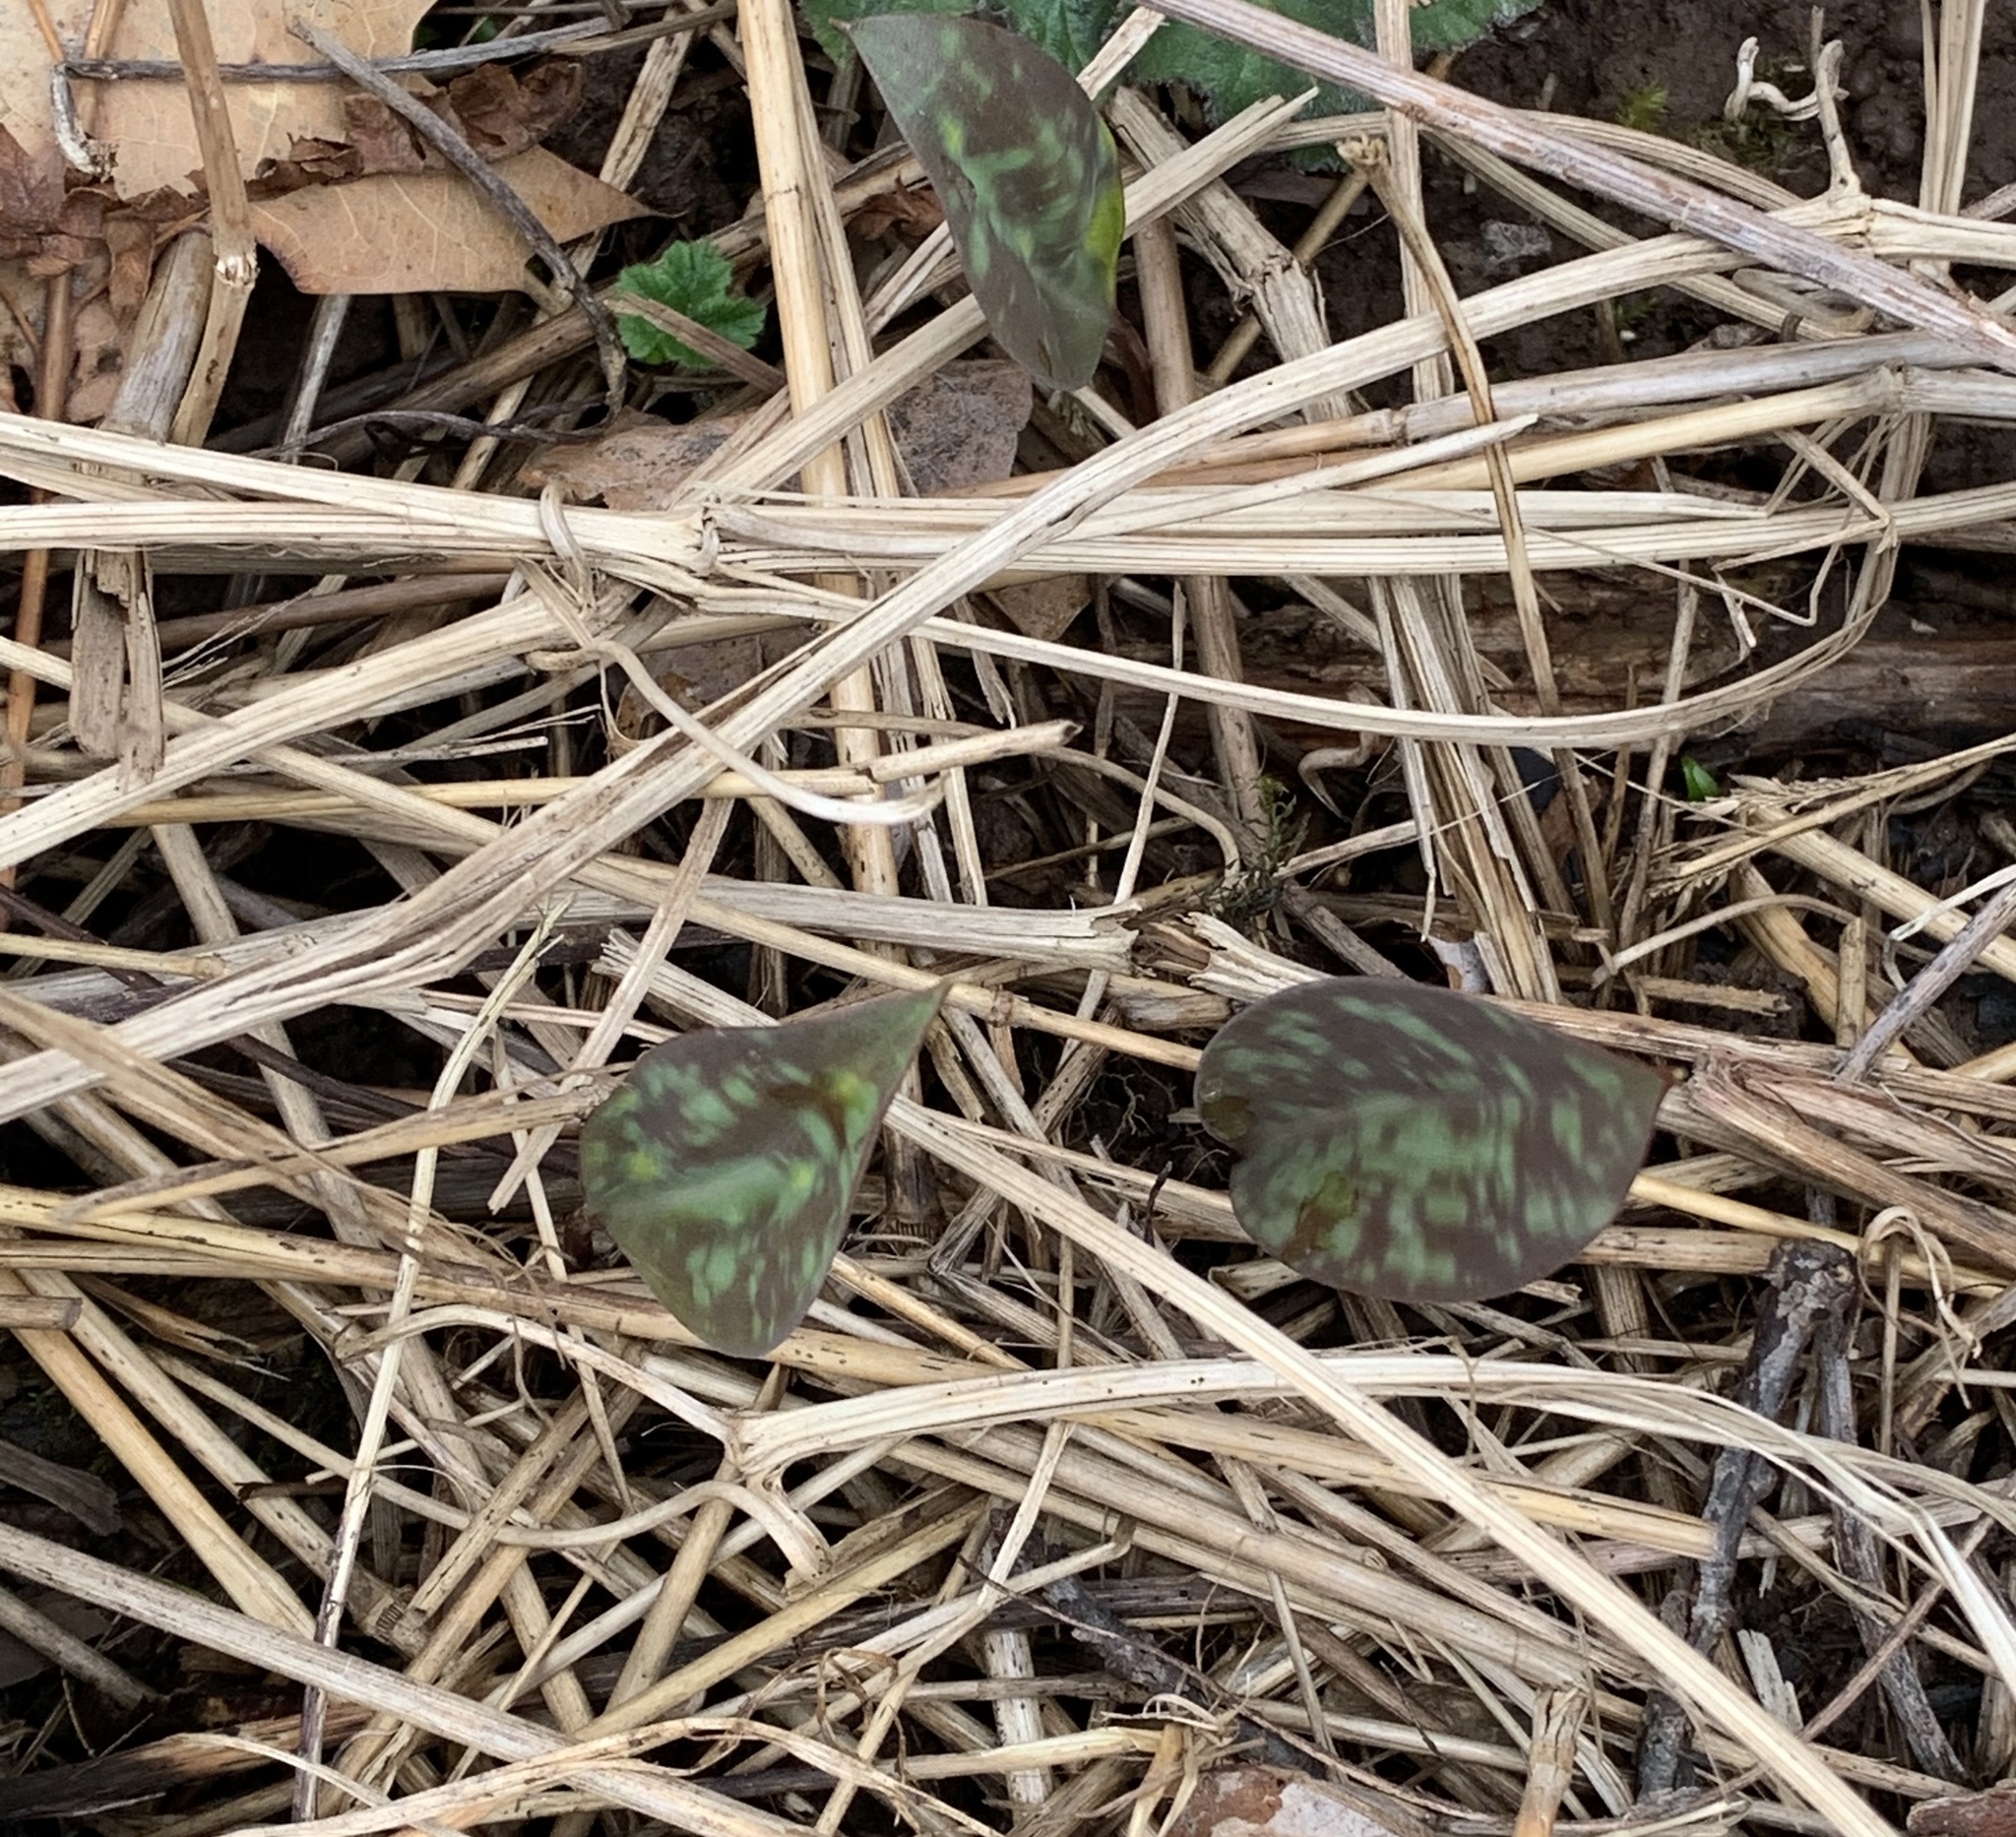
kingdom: Plantae
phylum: Tracheophyta
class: Liliopsida
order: Liliales
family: Liliaceae
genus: Erythronium
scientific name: Erythronium americanum
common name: Yellow adder's-tongue
